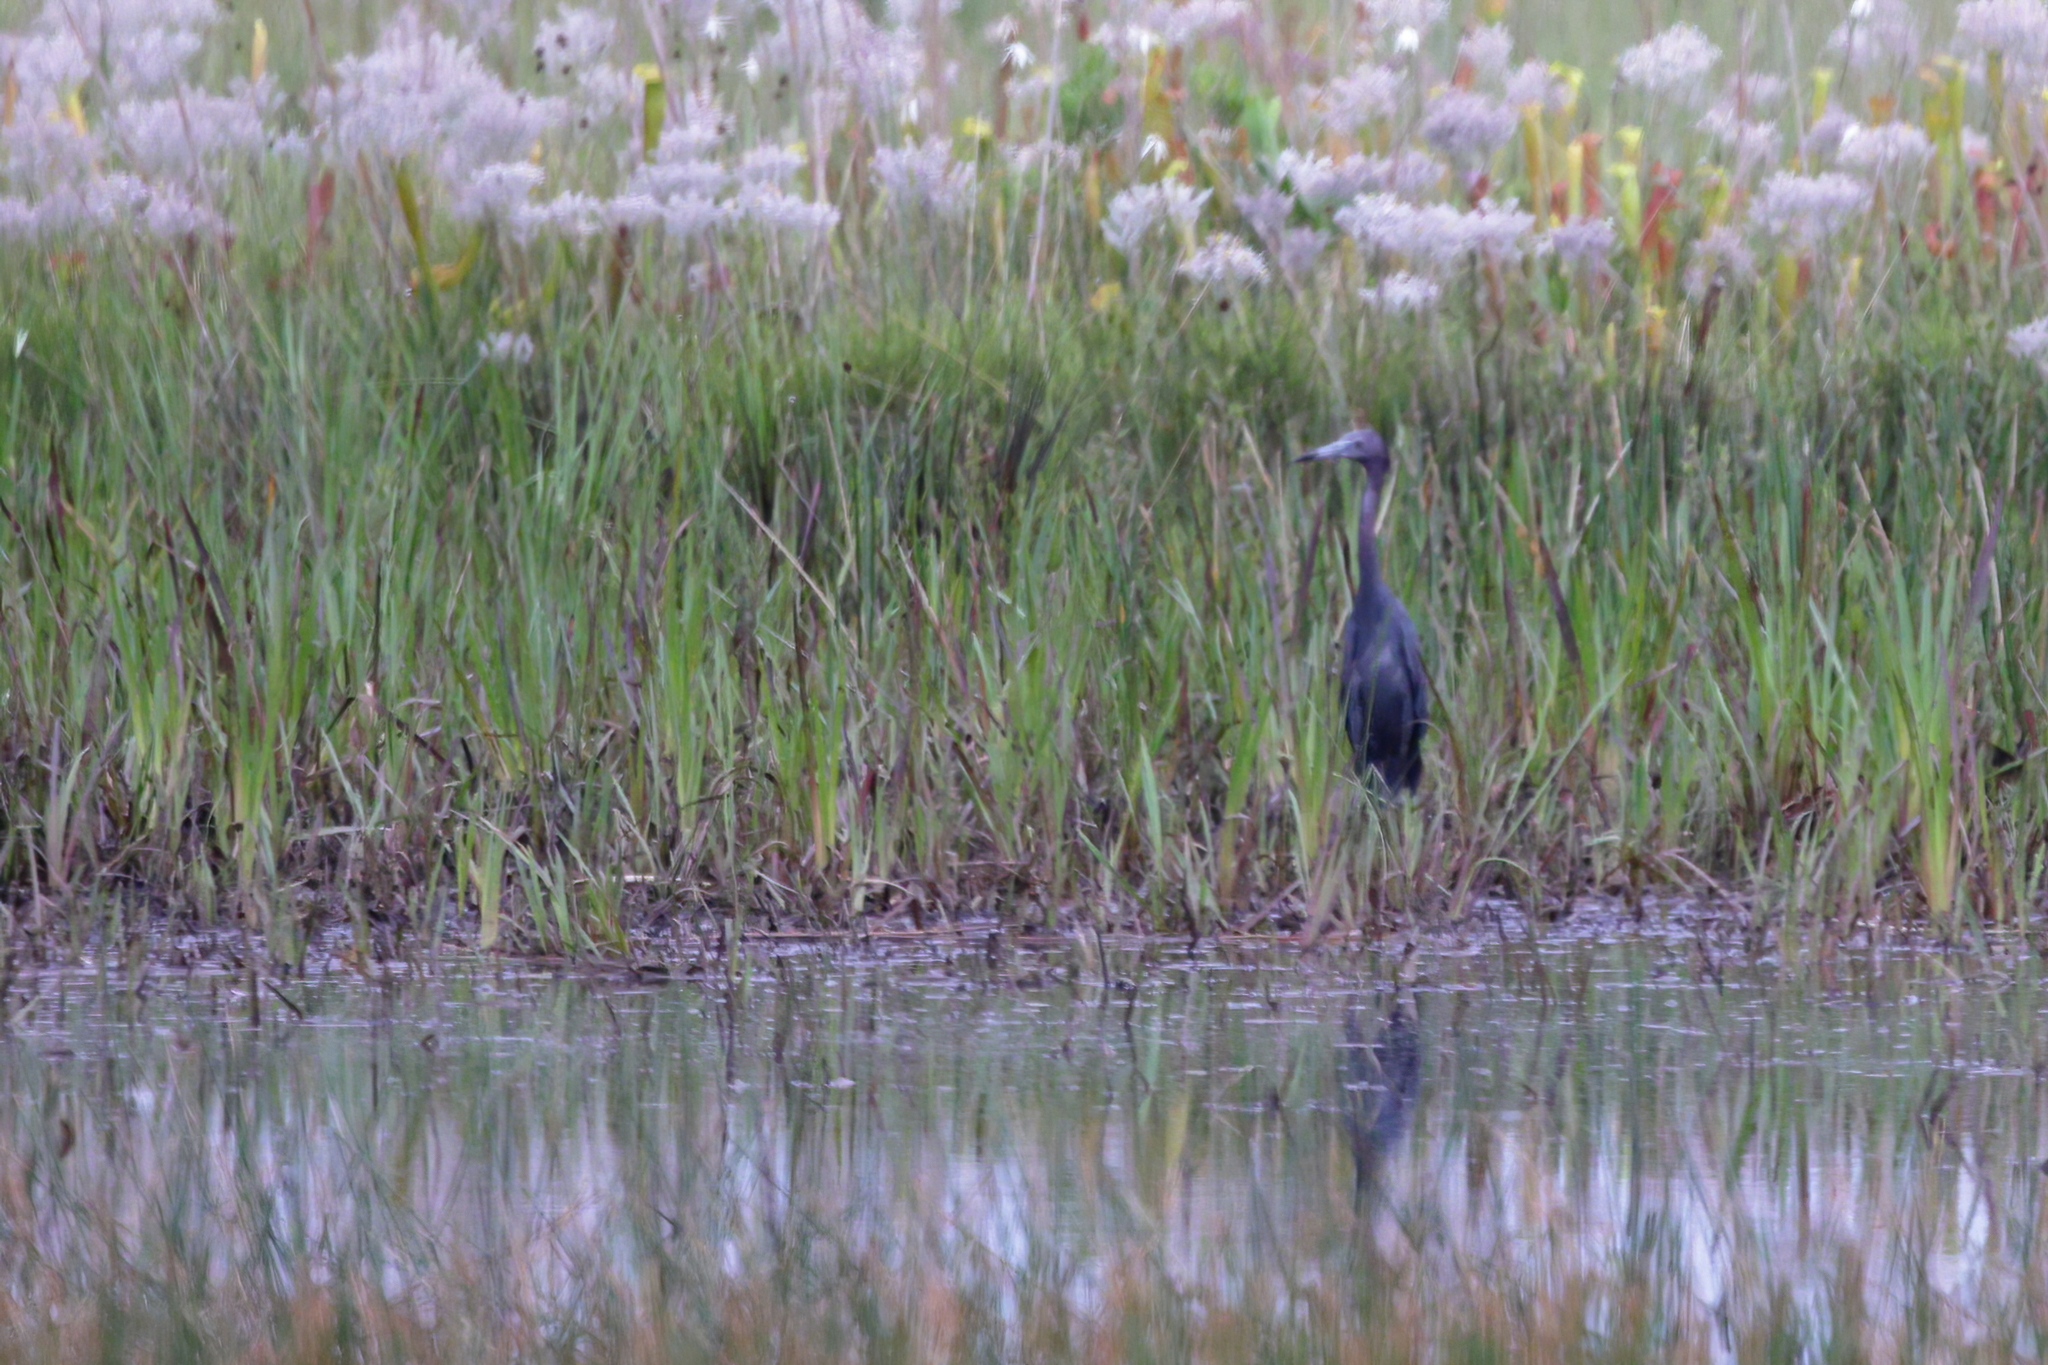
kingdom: Animalia
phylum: Chordata
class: Aves
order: Pelecaniformes
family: Ardeidae
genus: Egretta
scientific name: Egretta caerulea
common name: Little blue heron
